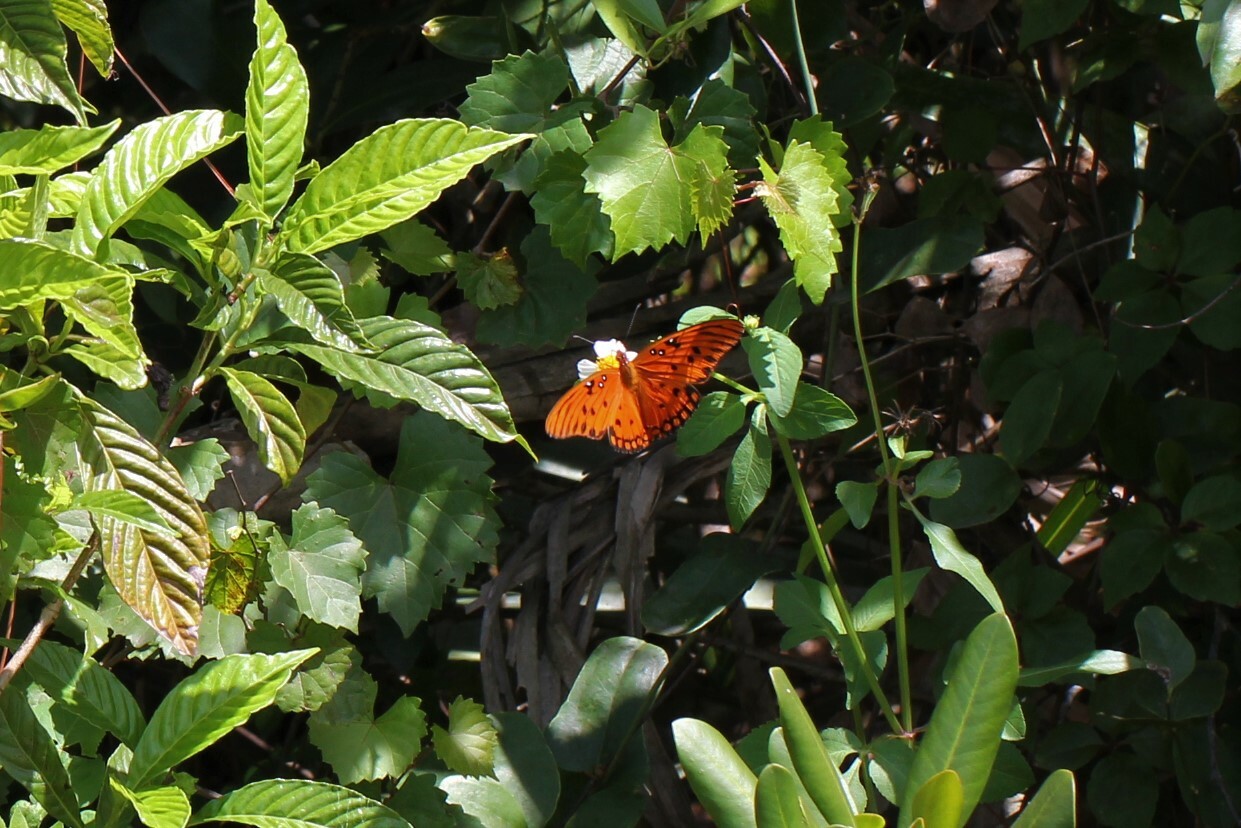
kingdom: Animalia
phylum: Arthropoda
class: Insecta
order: Lepidoptera
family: Nymphalidae
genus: Dione
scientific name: Dione vanillae
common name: Gulf fritillary
